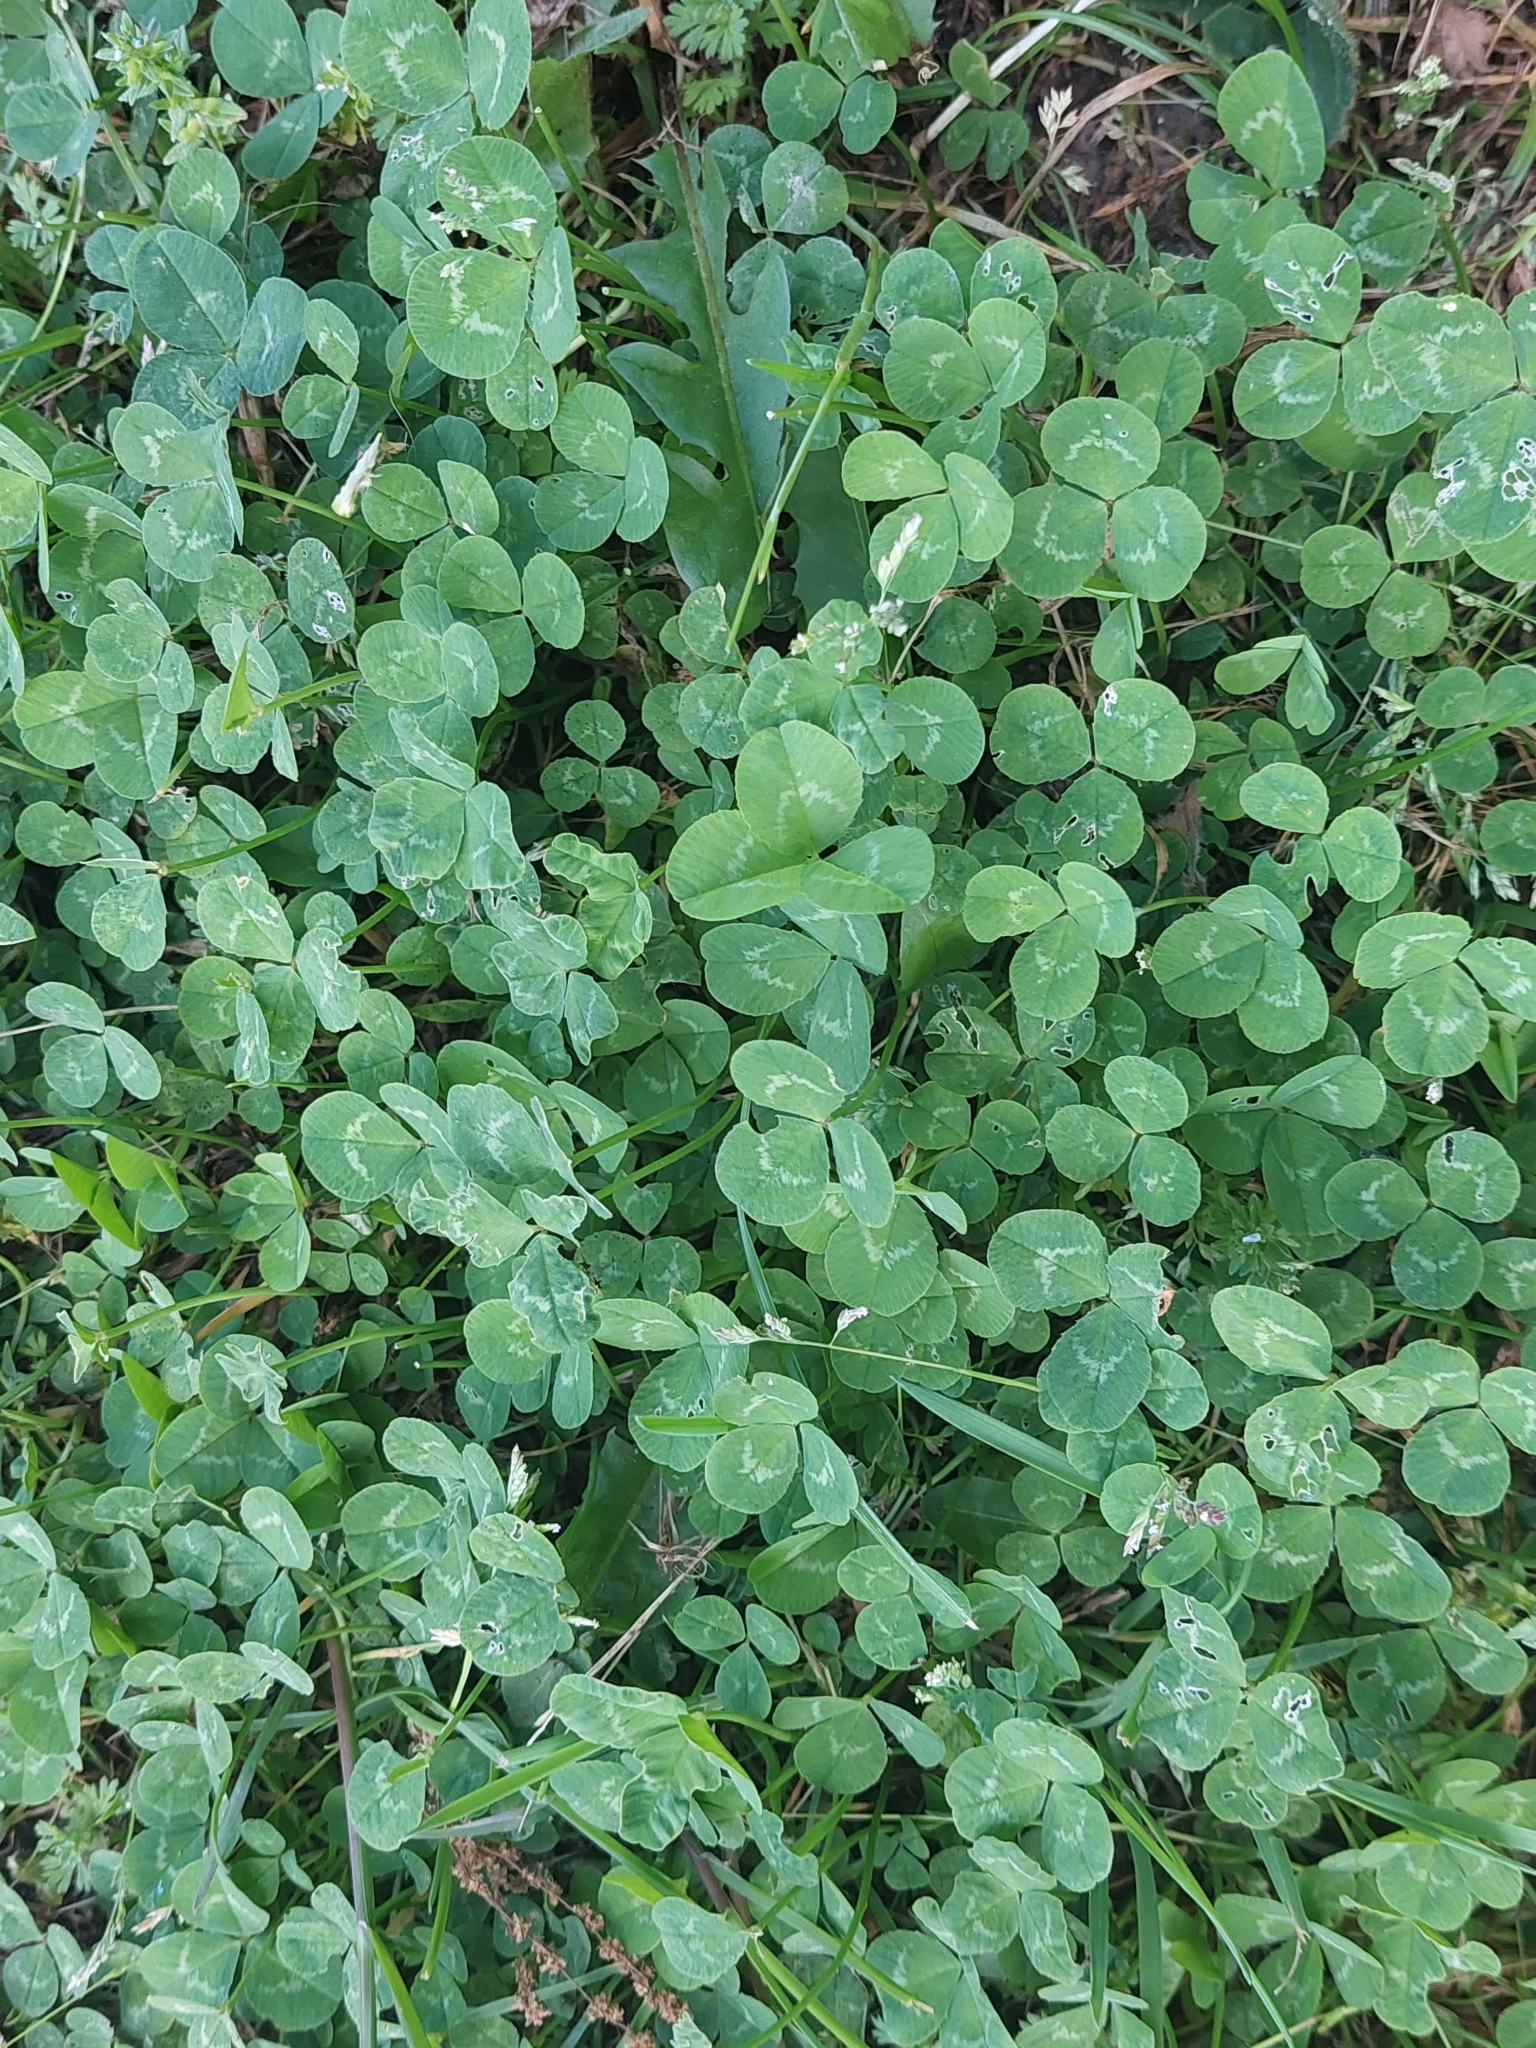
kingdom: Plantae
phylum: Tracheophyta
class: Magnoliopsida
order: Fabales
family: Fabaceae
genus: Trifolium
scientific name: Trifolium repens
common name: White clover
